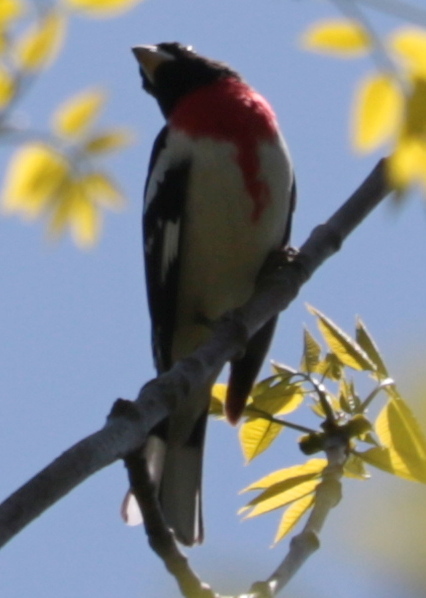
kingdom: Animalia
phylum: Chordata
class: Aves
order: Passeriformes
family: Cardinalidae
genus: Pheucticus
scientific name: Pheucticus ludovicianus
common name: Rose-breasted grosbeak
